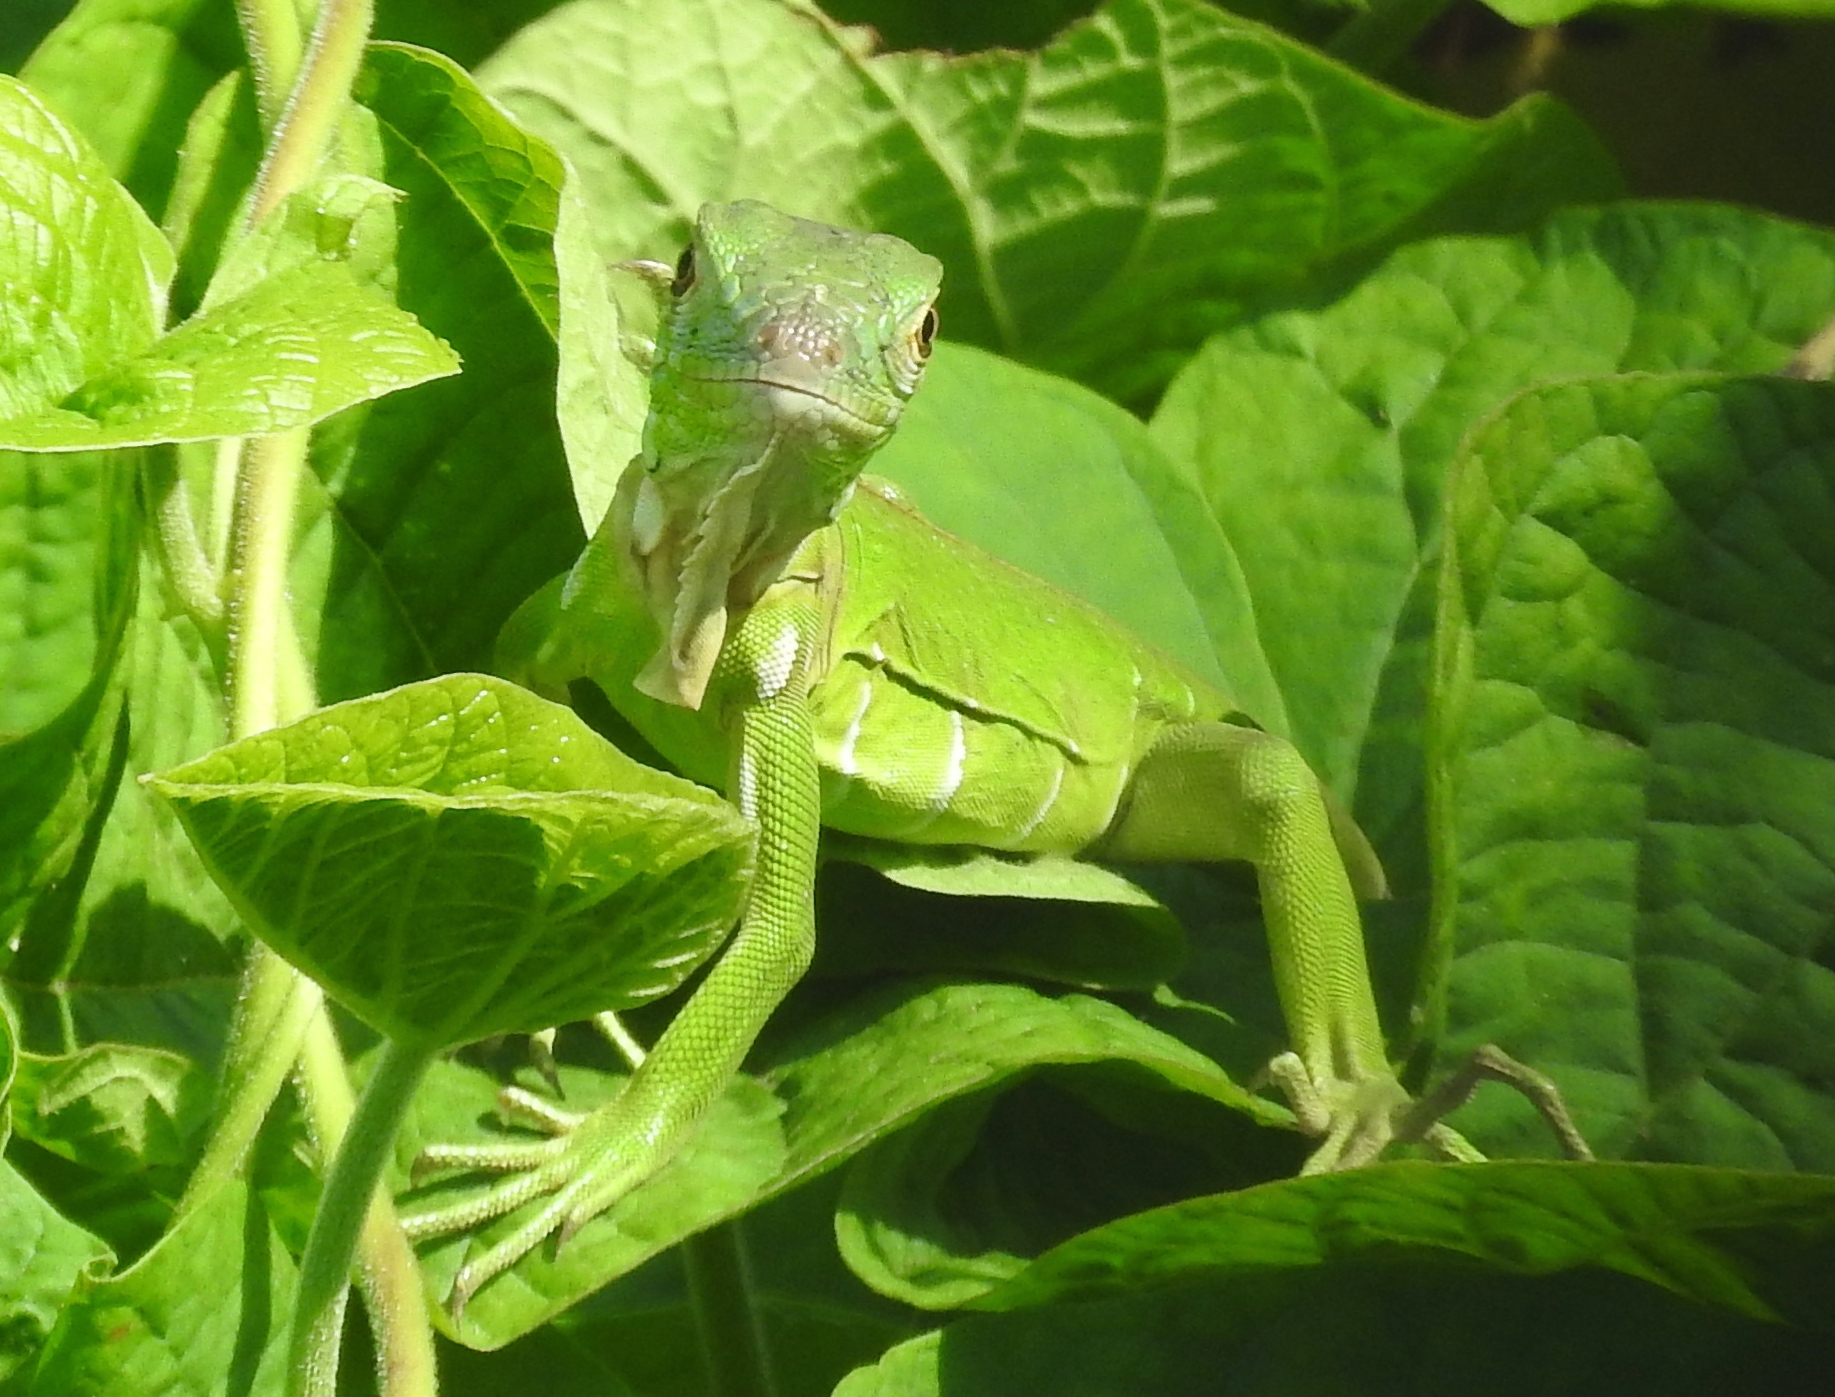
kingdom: Animalia
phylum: Chordata
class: Squamata
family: Iguanidae
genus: Iguana
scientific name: Iguana iguana
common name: Green iguana
